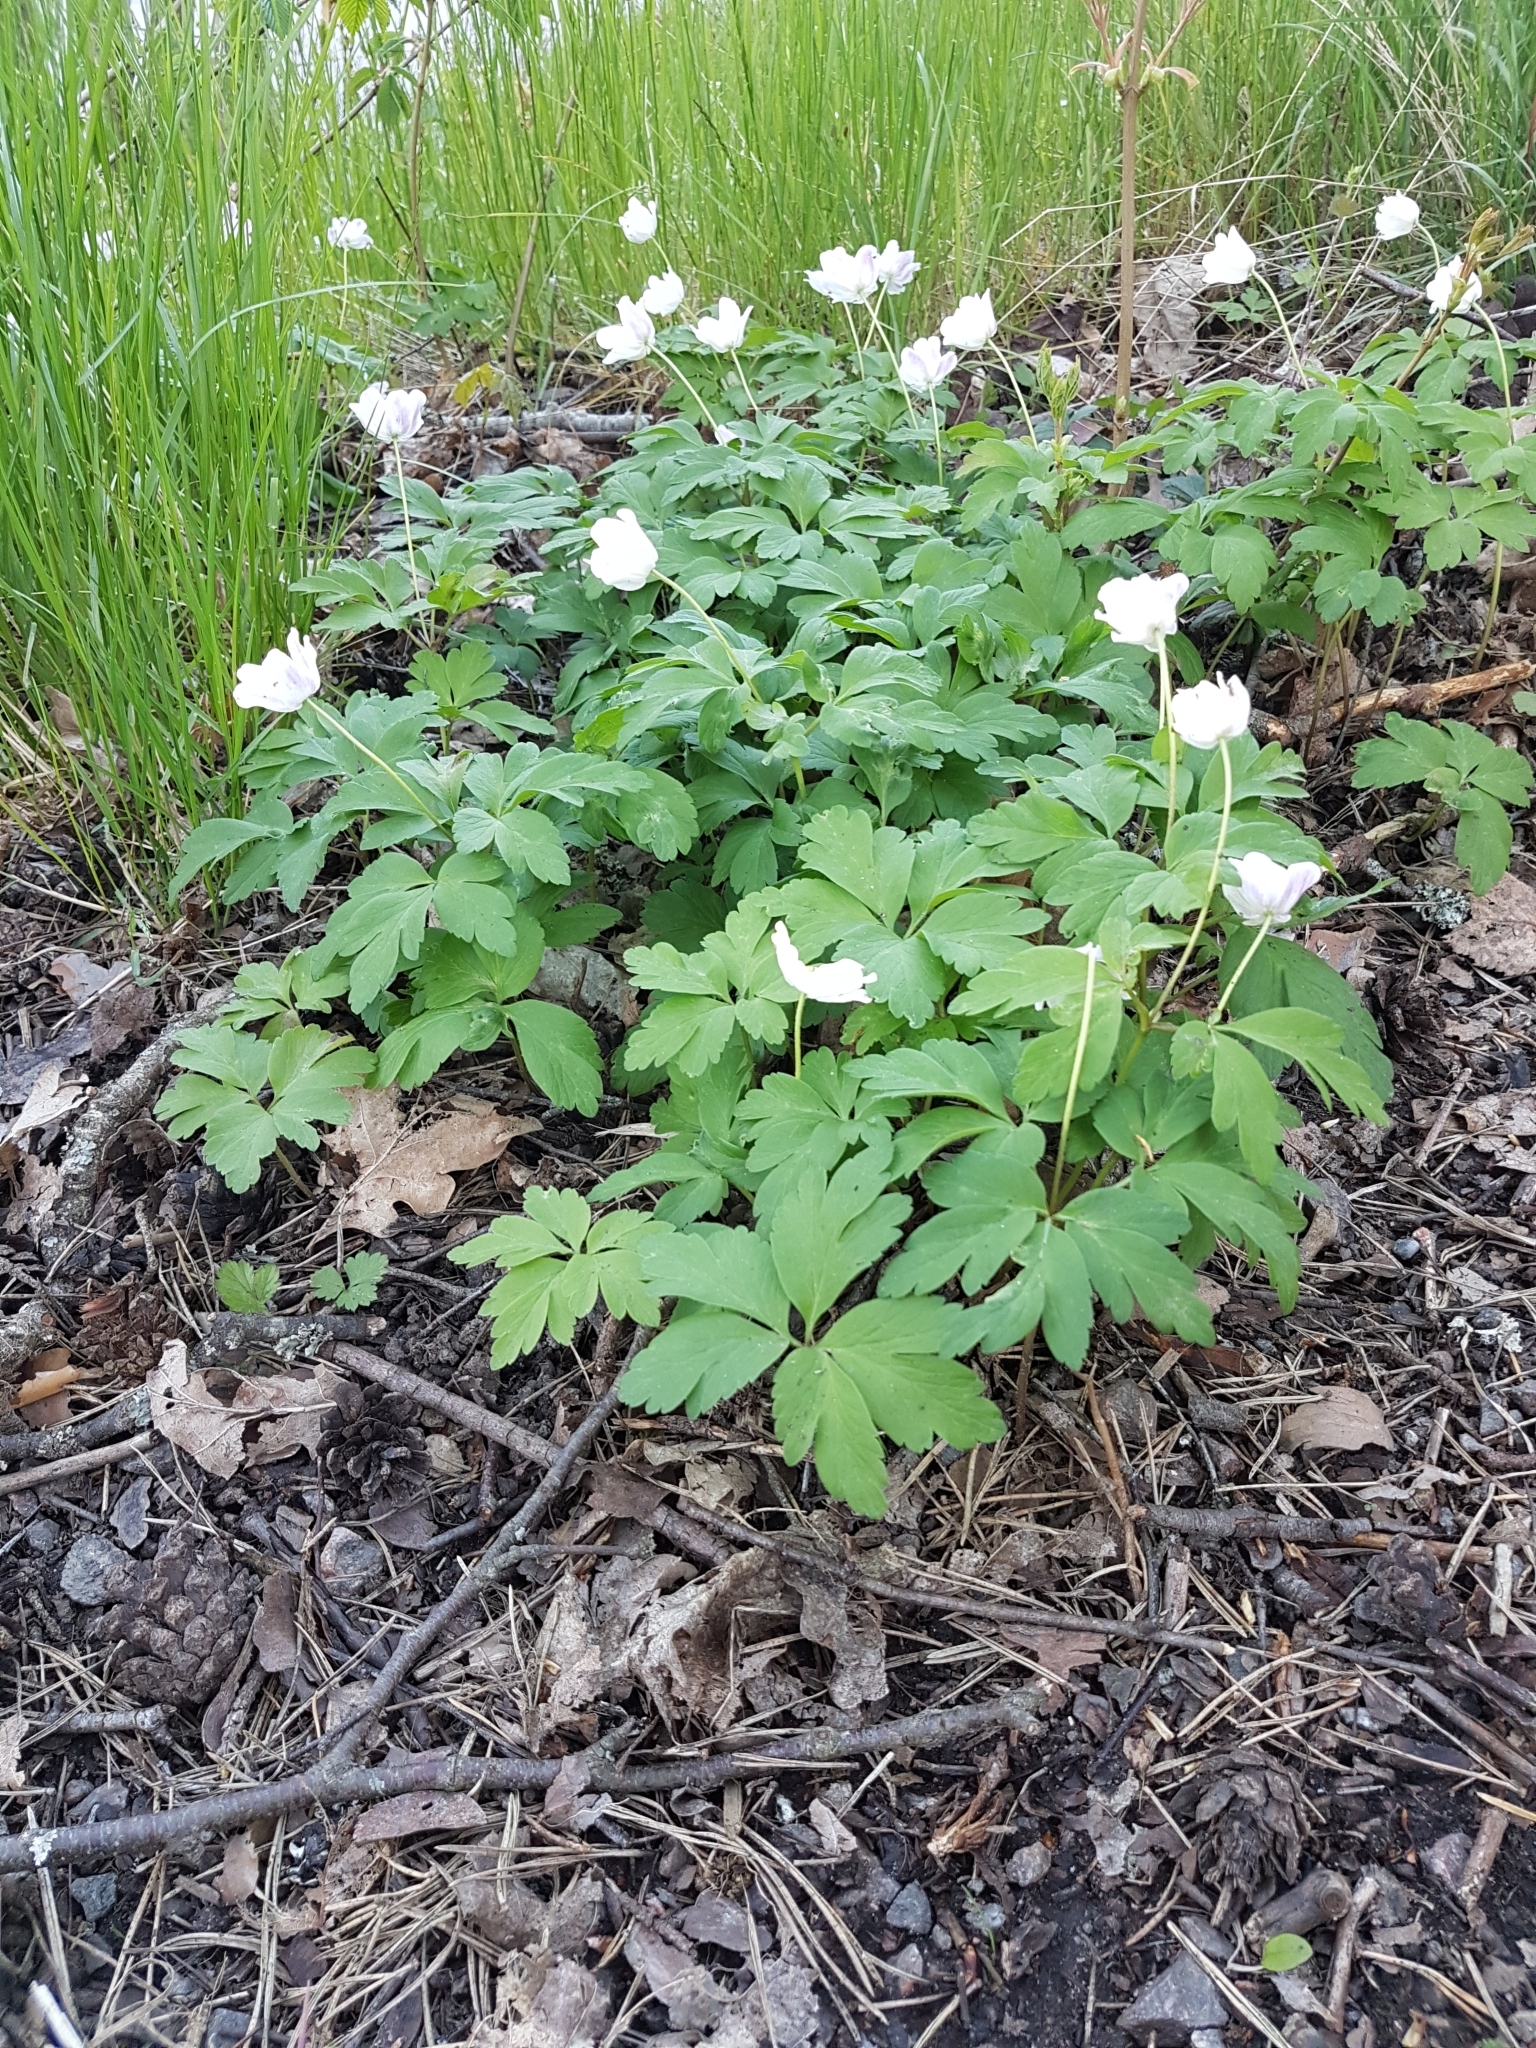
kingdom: Plantae
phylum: Tracheophyta
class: Magnoliopsida
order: Ranunculales
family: Ranunculaceae
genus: Anemone
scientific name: Anemone nemorosa
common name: Wood anemone
